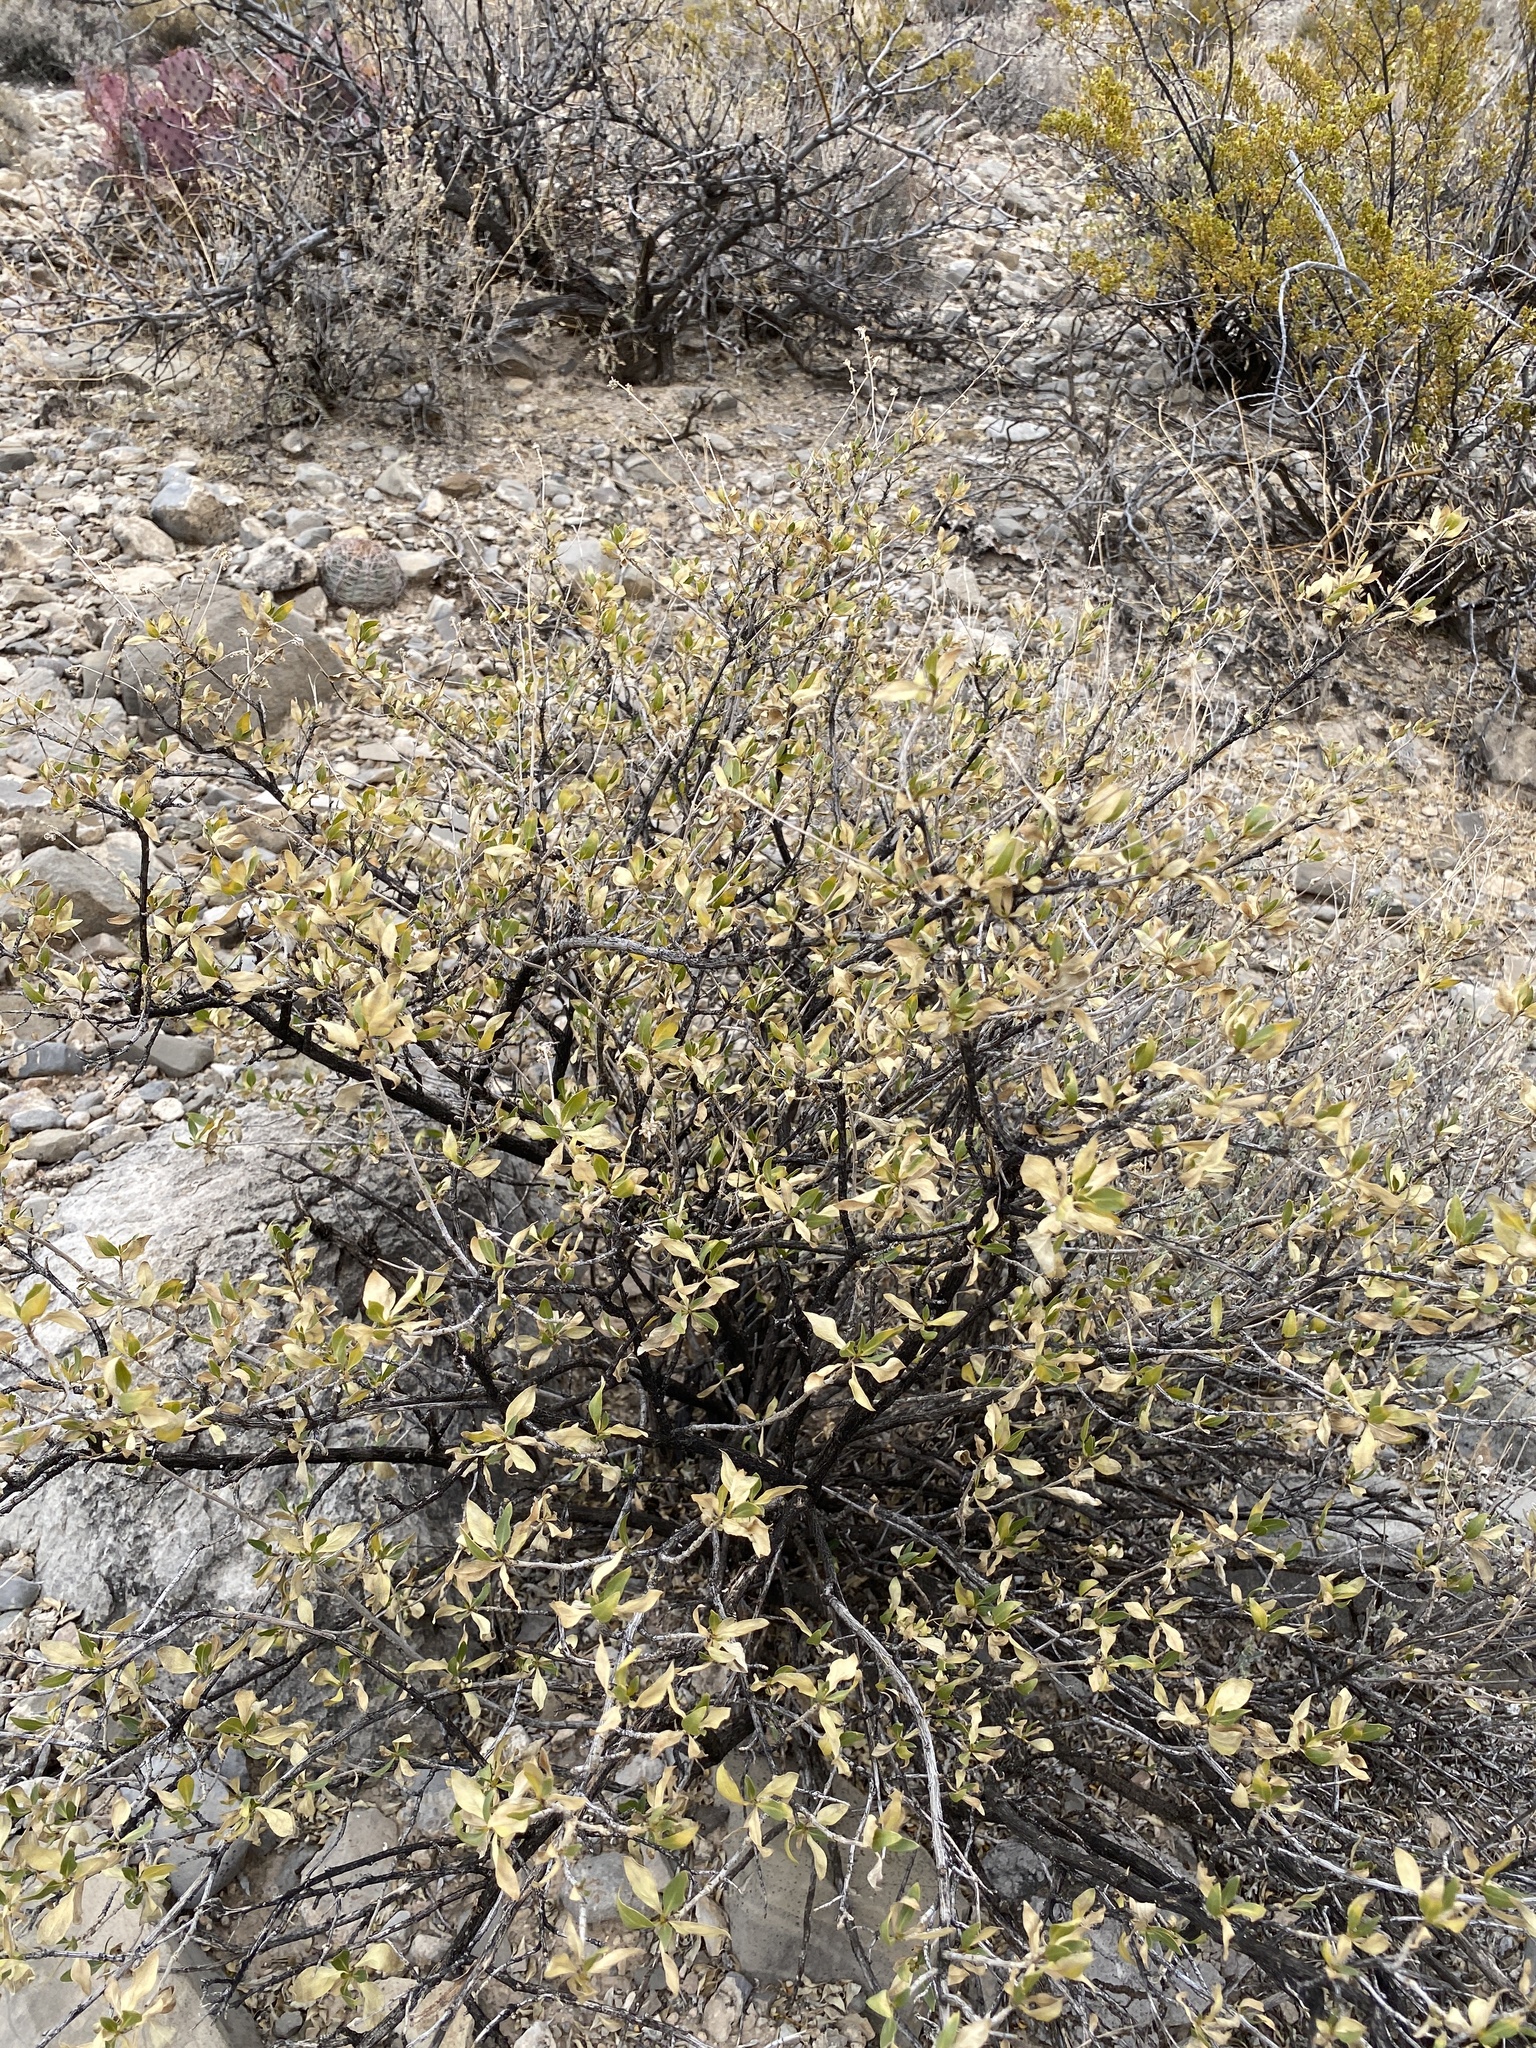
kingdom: Plantae
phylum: Tracheophyta
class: Magnoliopsida
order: Asterales
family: Asteraceae
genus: Flourensia
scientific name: Flourensia cernua
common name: Varnishbush
